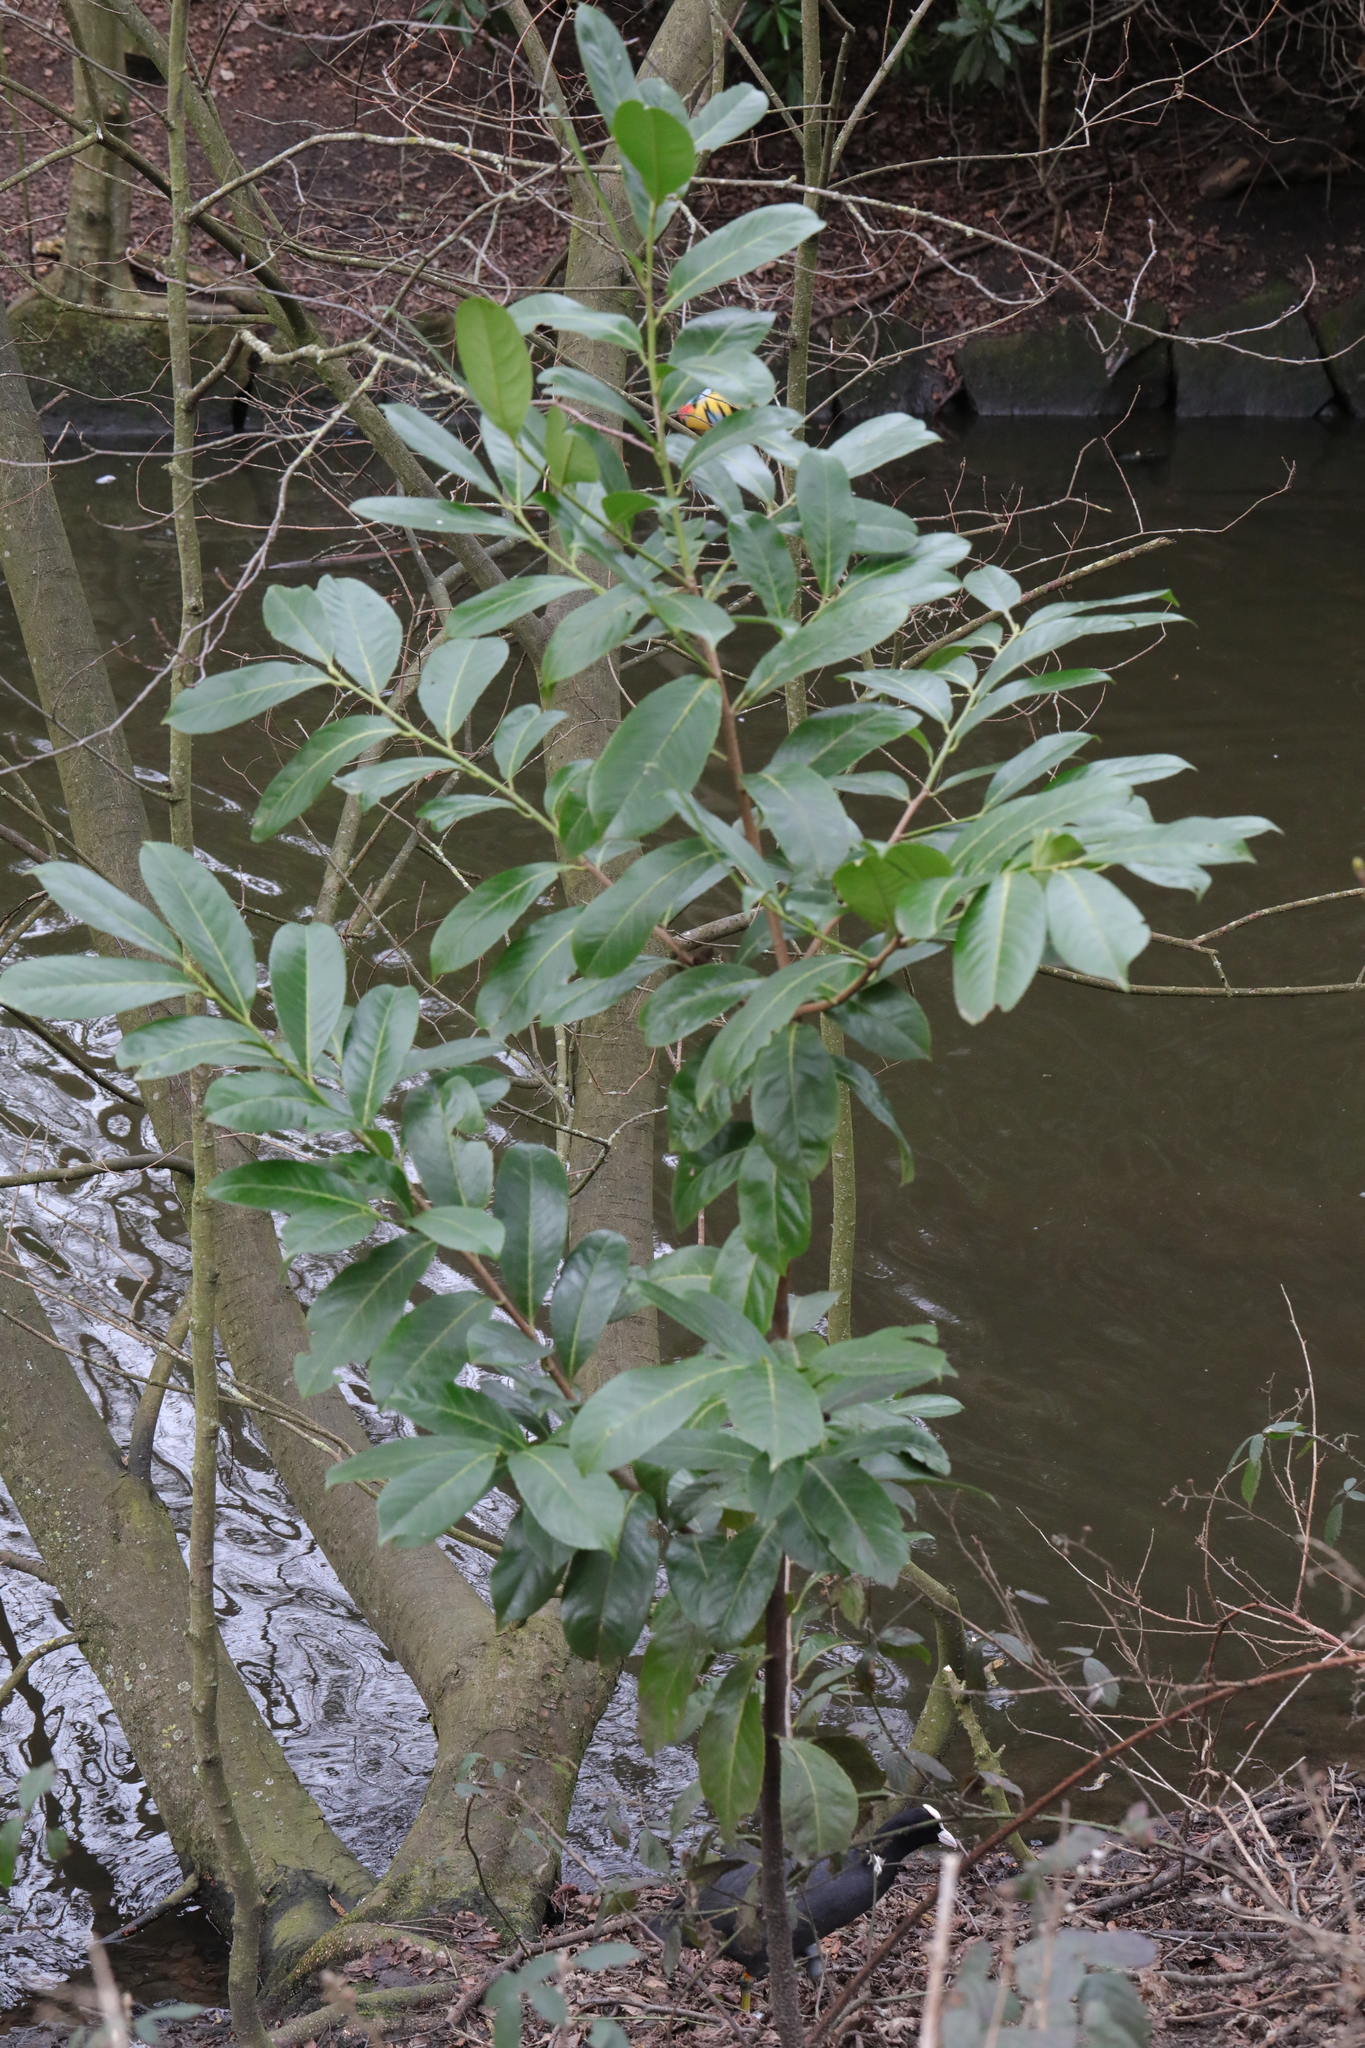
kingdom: Plantae
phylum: Tracheophyta
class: Magnoliopsida
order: Rosales
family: Rosaceae
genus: Prunus
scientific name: Prunus laurocerasus
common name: Cherry laurel
